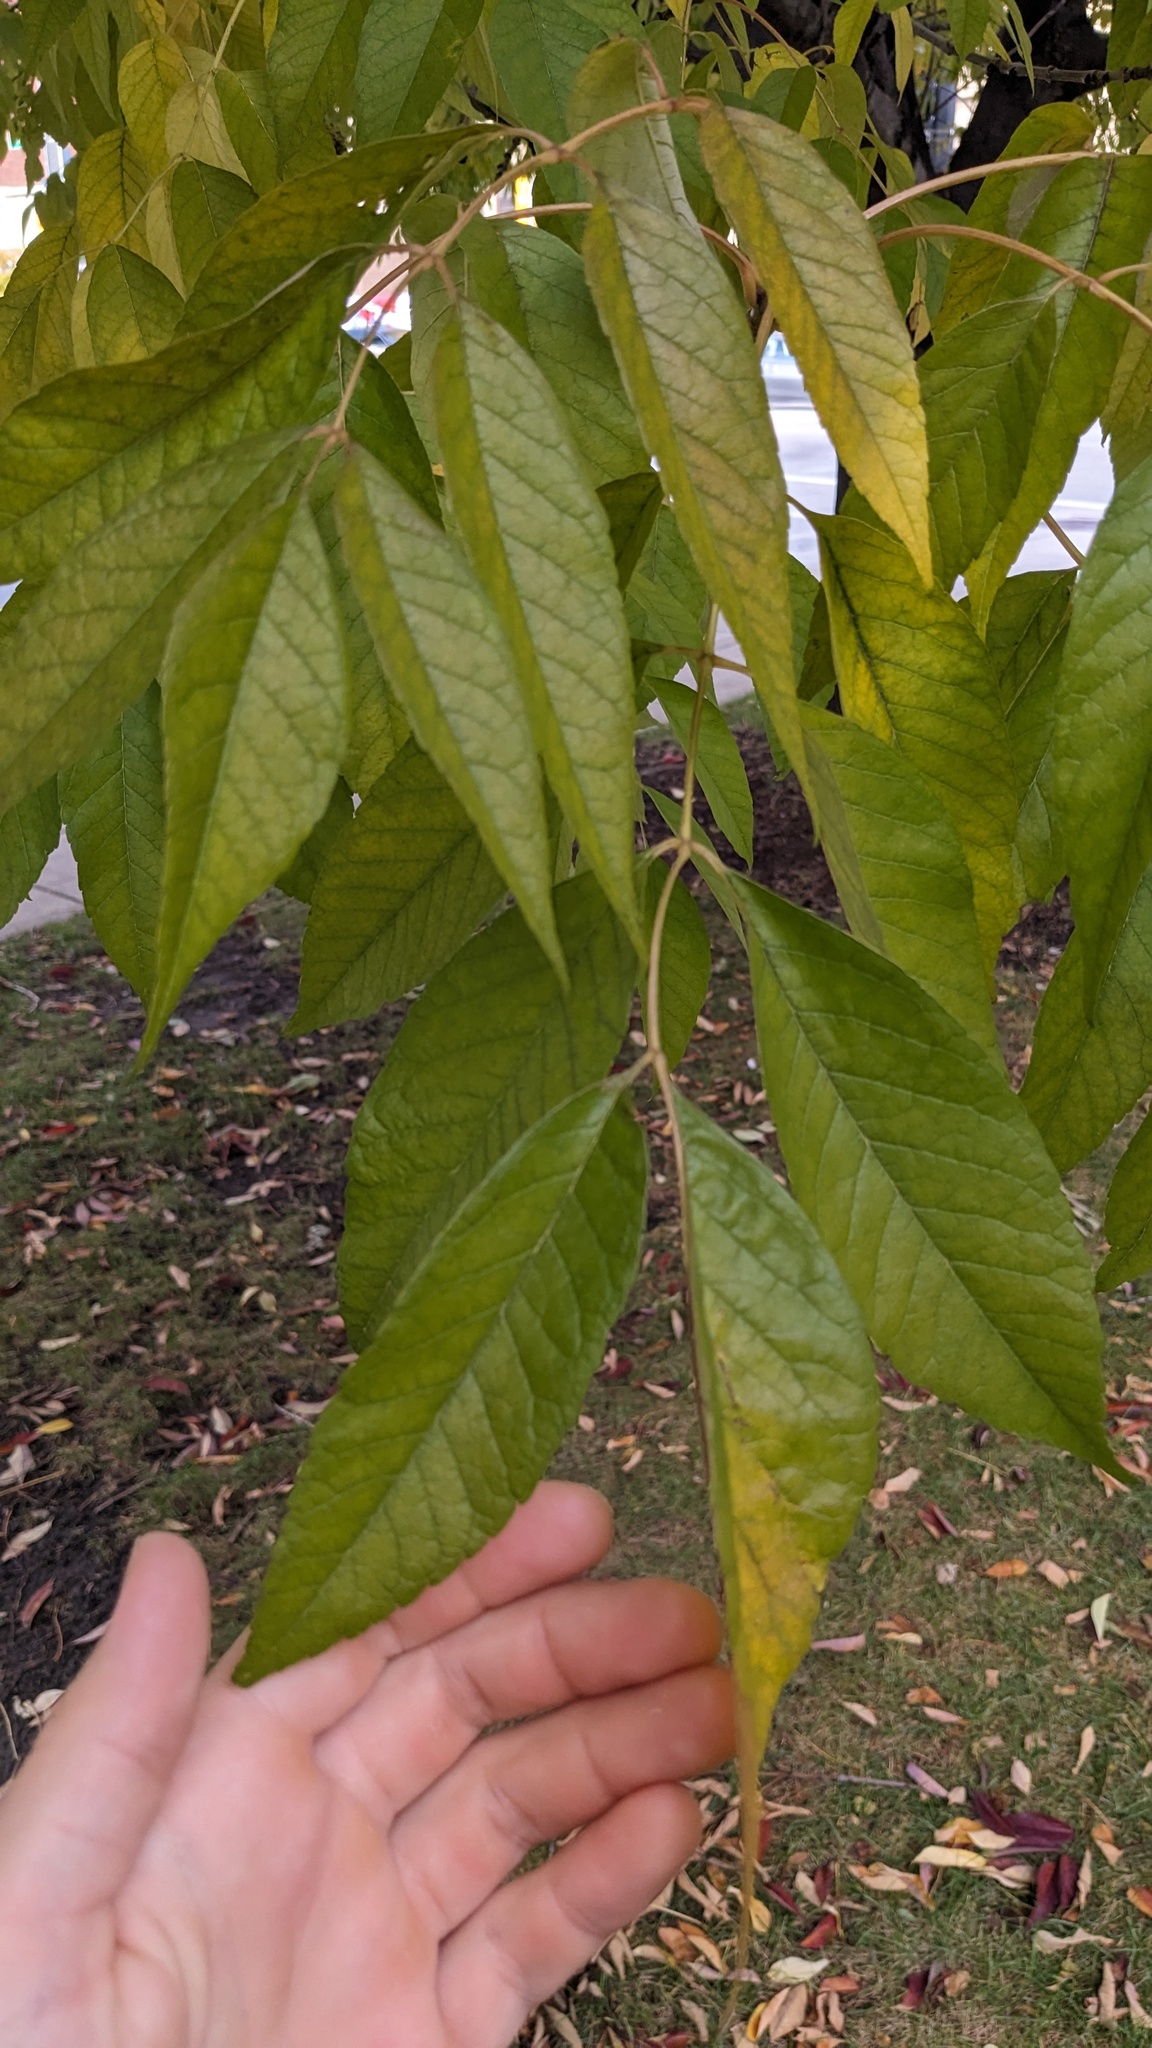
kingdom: Animalia
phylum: Arthropoda
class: Arachnida
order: Trombidiformes
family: Eriophyidae
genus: Aceria
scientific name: Aceria fraxiniflora
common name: Ash flower gall mite
